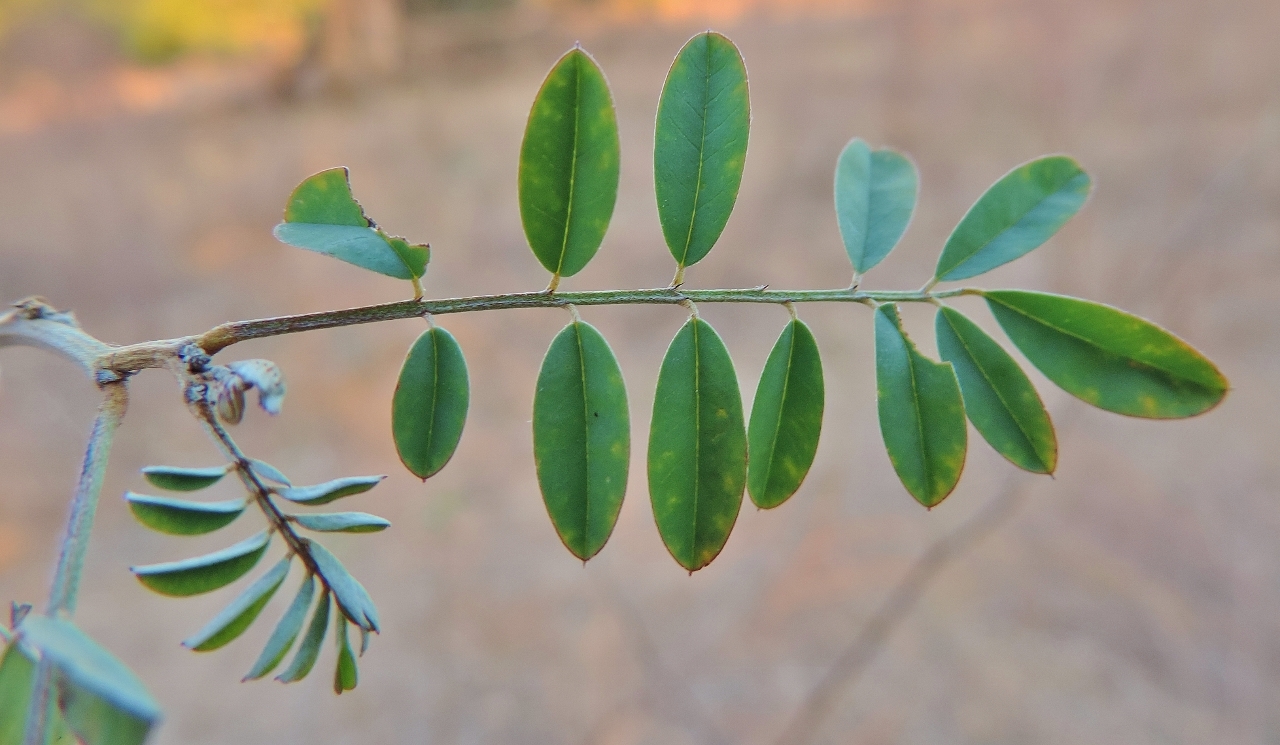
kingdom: Plantae
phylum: Tracheophyta
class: Magnoliopsida
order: Fabales
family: Fabaceae
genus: Indigofera
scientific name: Indigofera tinctoria
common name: True indigo
